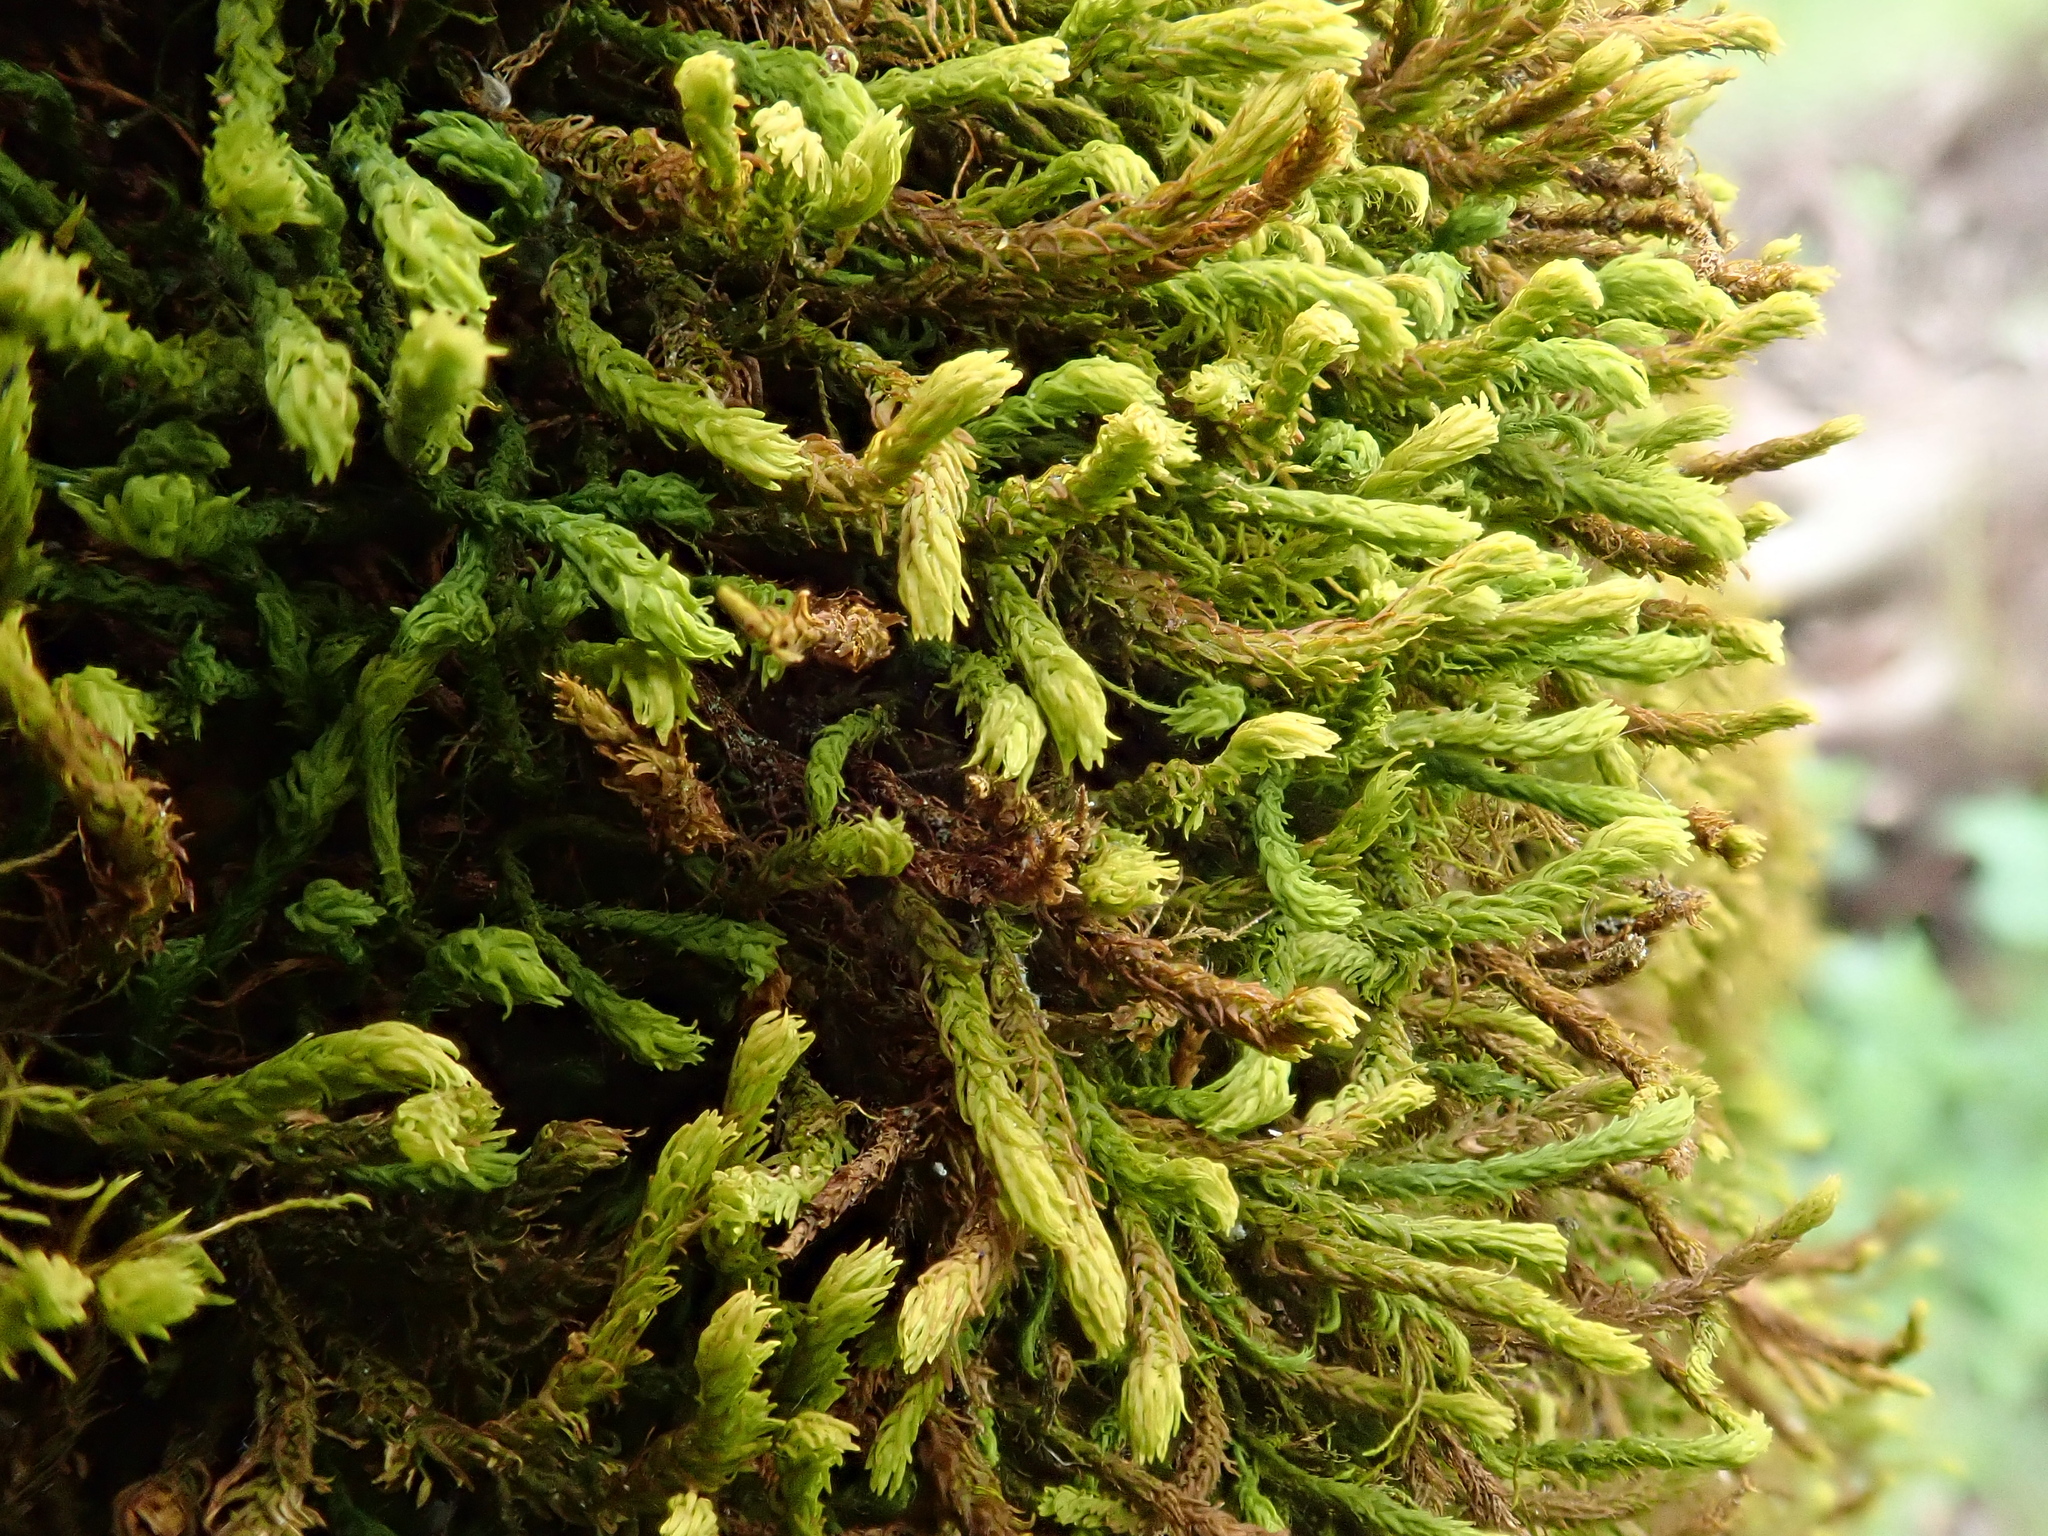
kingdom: Plantae
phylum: Bryophyta
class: Bryopsida
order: Hypnales
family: Anomodontaceae
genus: Anomodon
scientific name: Anomodon viticulosus
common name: Tall anomodon
